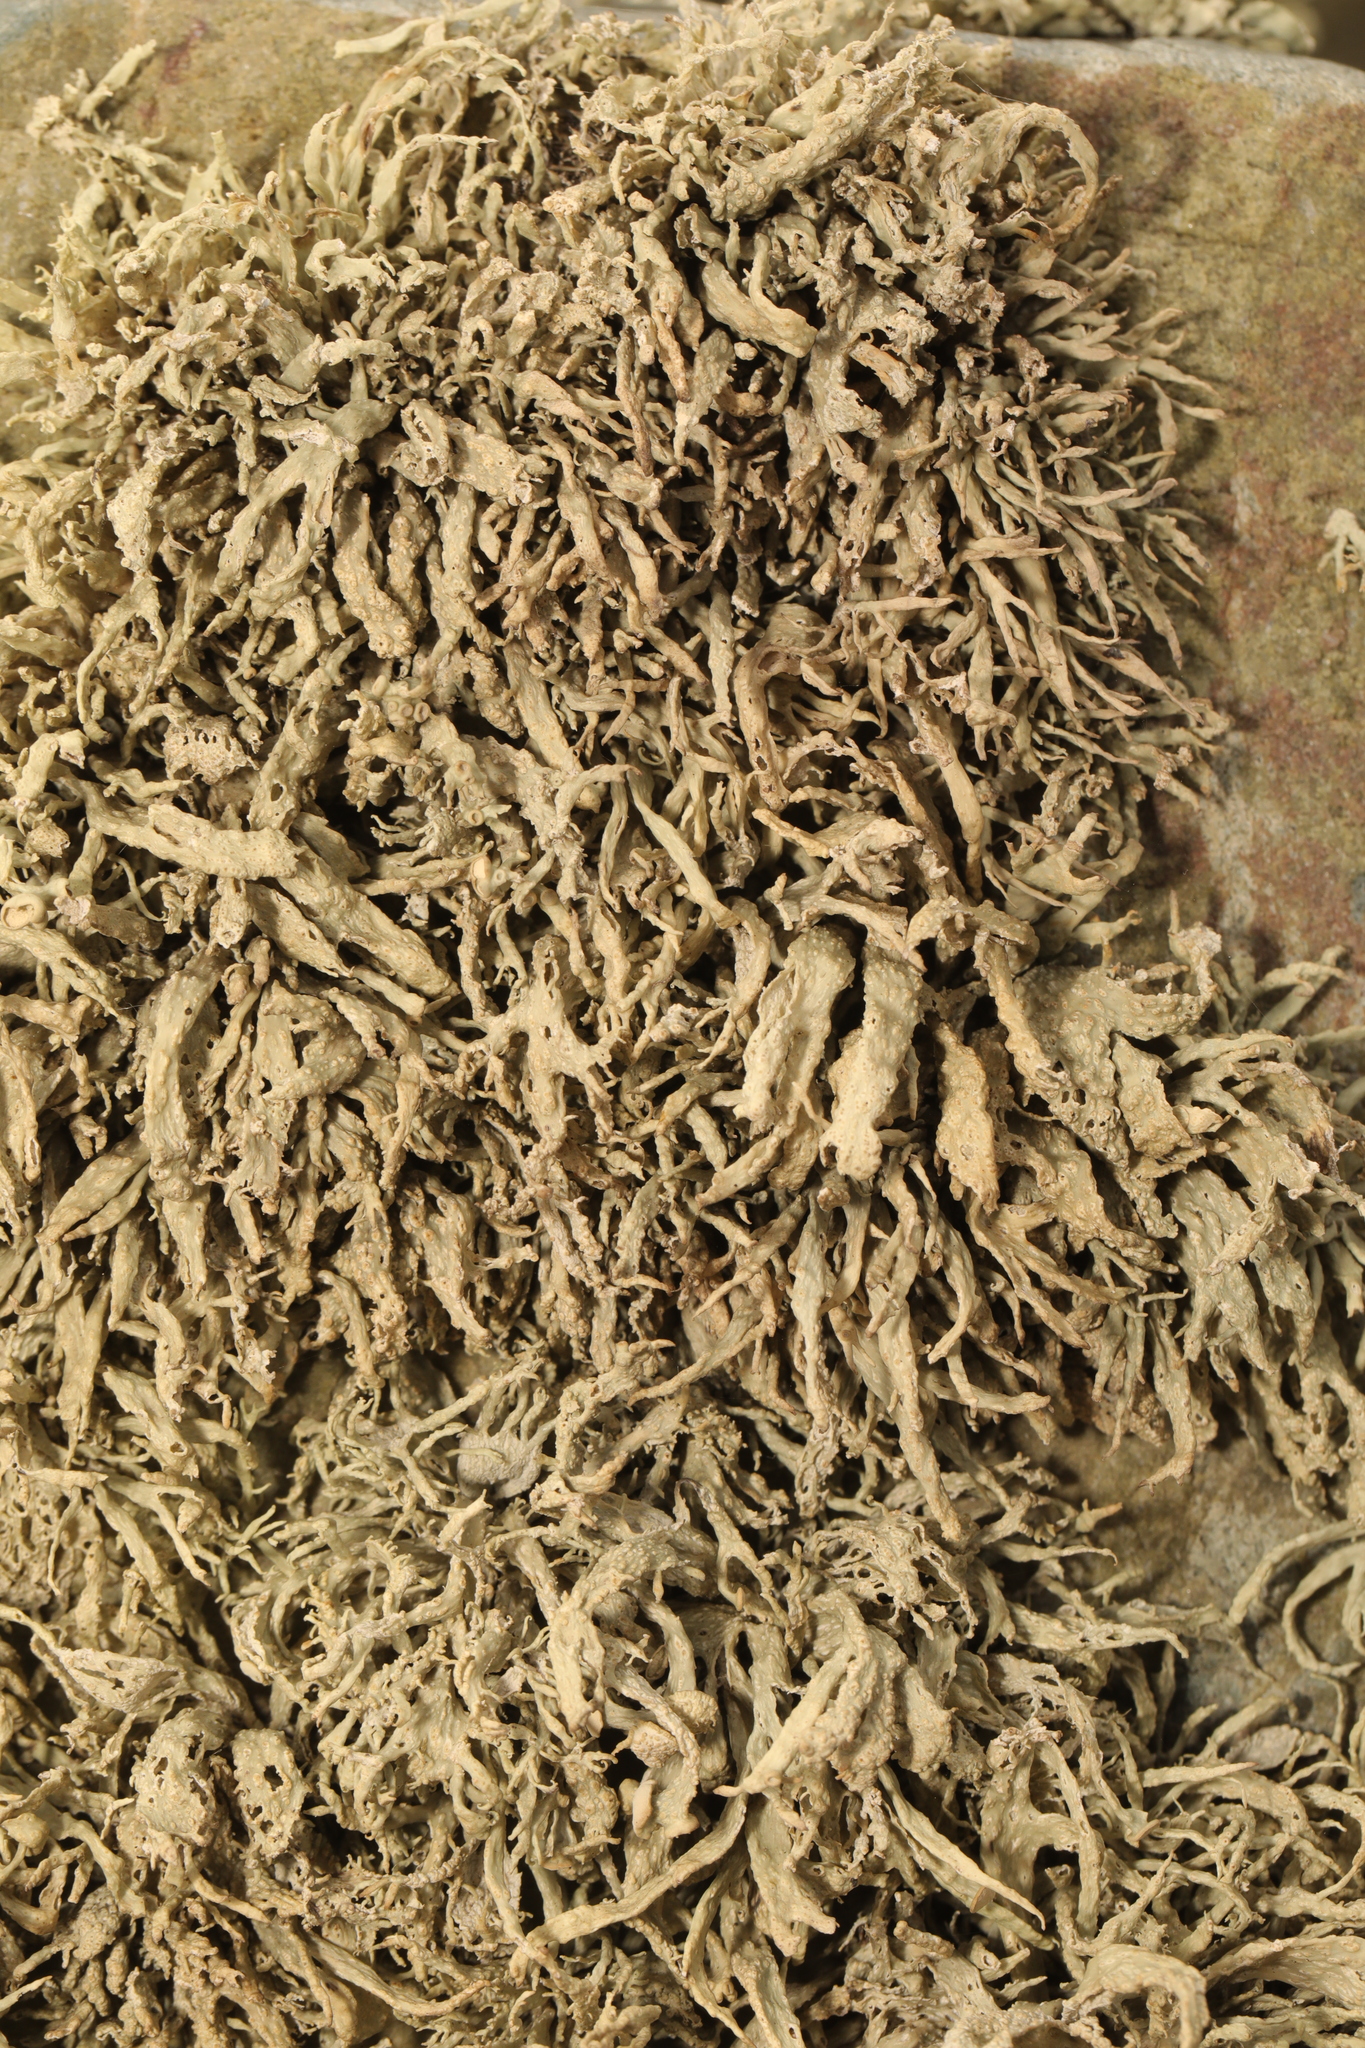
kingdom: Fungi
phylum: Ascomycota
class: Lecanoromycetes
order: Lecanorales
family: Ramalinaceae
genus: Ramalina
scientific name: Ramalina siliquosa
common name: Sea ivory
